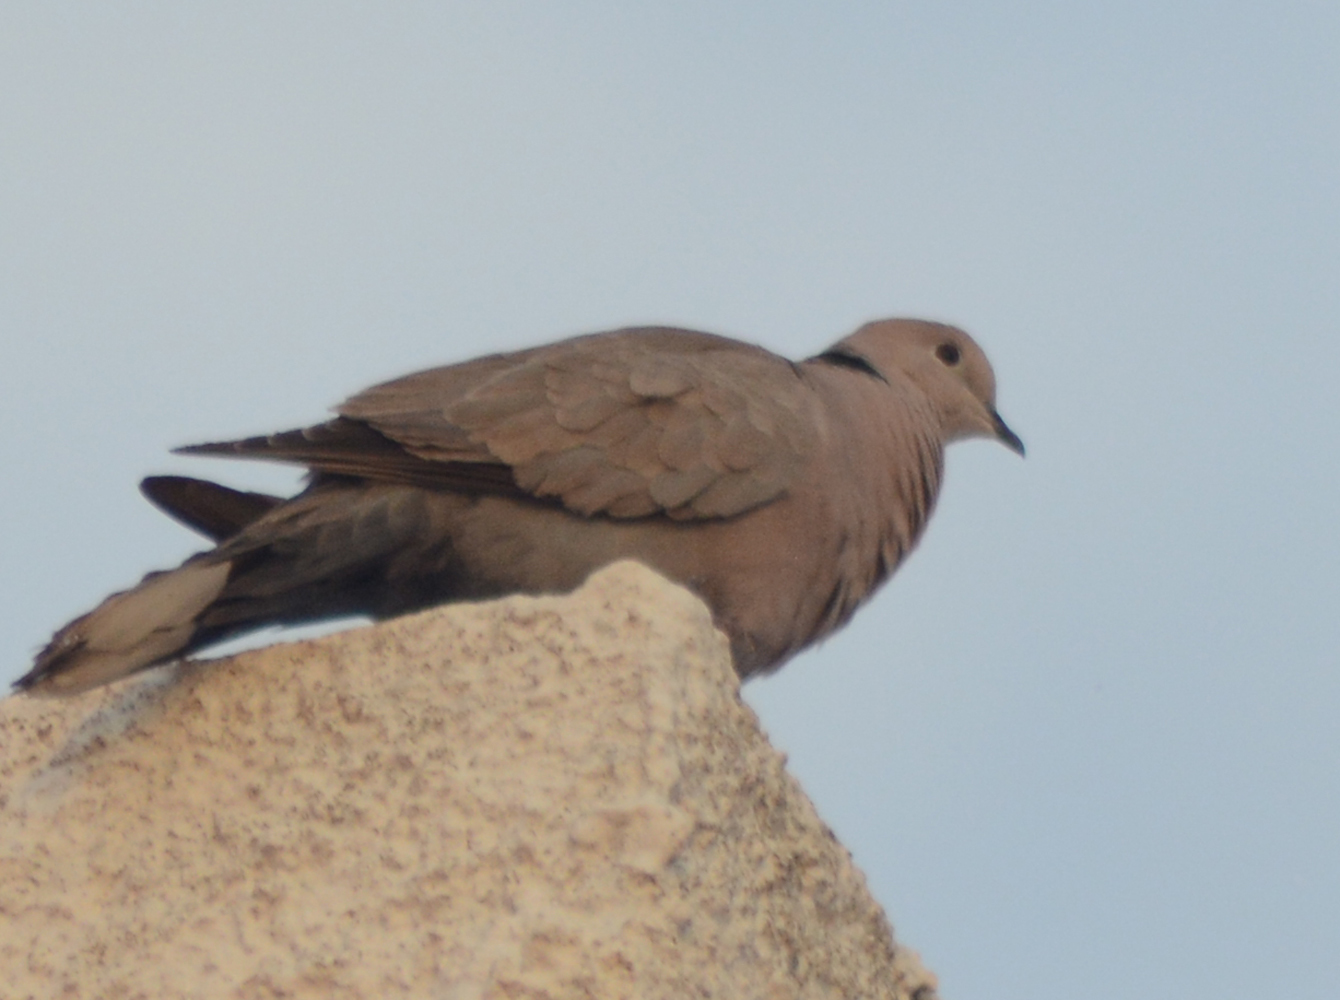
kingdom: Animalia
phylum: Chordata
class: Aves
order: Columbiformes
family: Columbidae
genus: Streptopelia
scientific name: Streptopelia decaocto
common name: Eurasian collared dove
